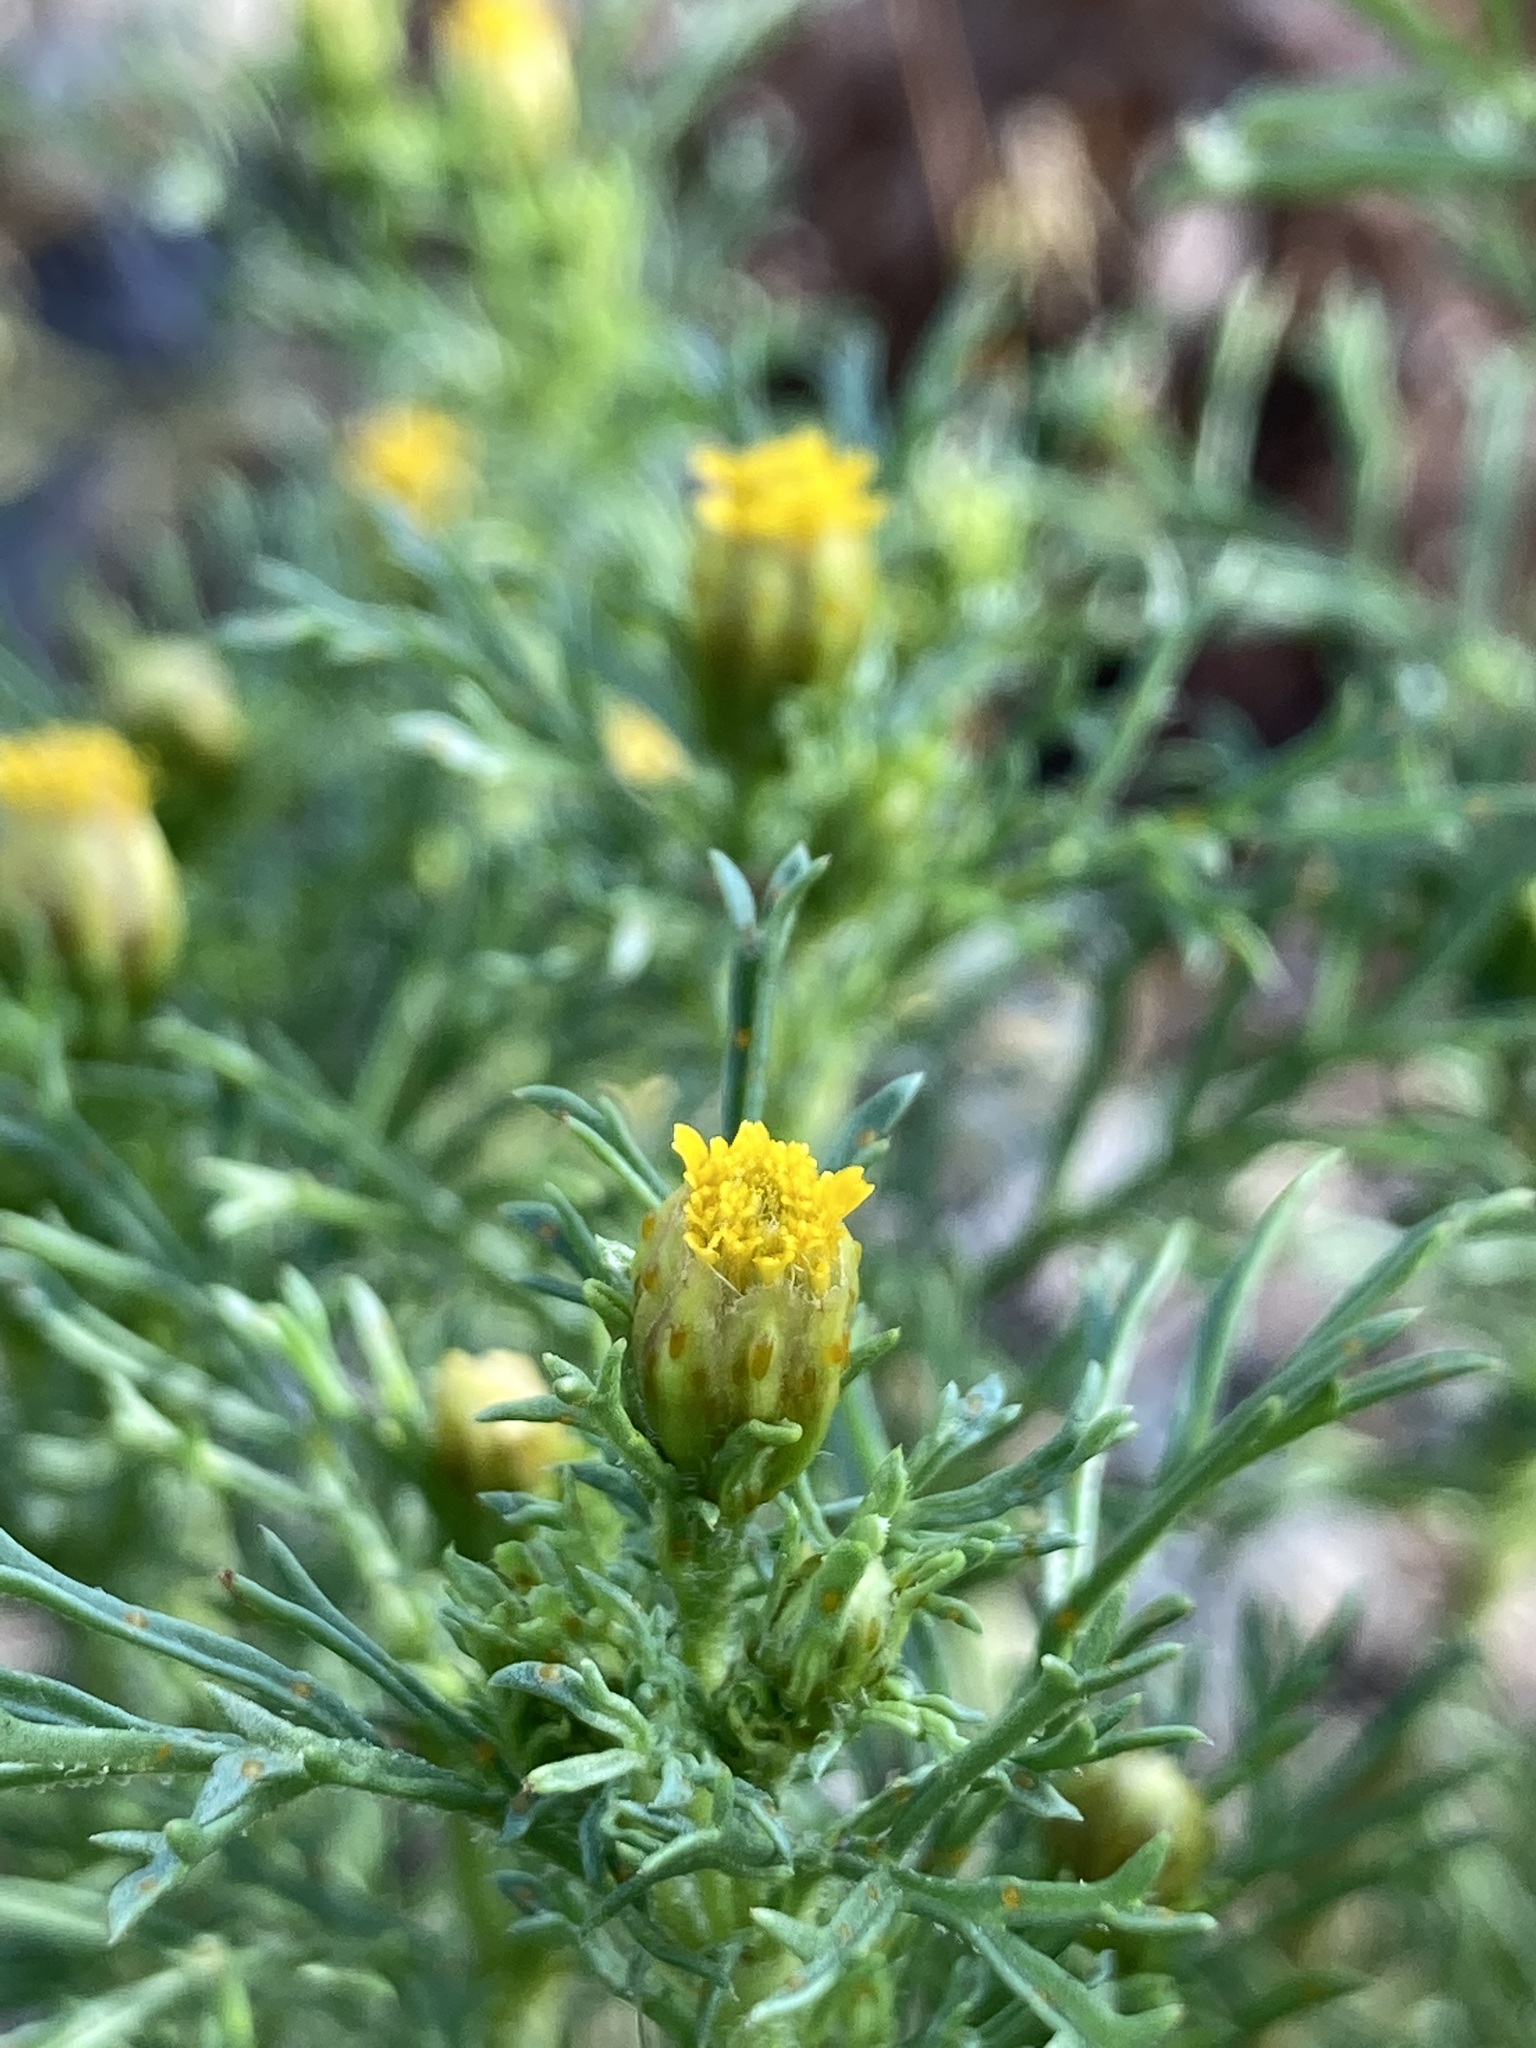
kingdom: Plantae
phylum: Tracheophyta
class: Magnoliopsida
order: Asterales
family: Asteraceae
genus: Dyssodia
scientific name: Dyssodia papposa
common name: Dogweed
